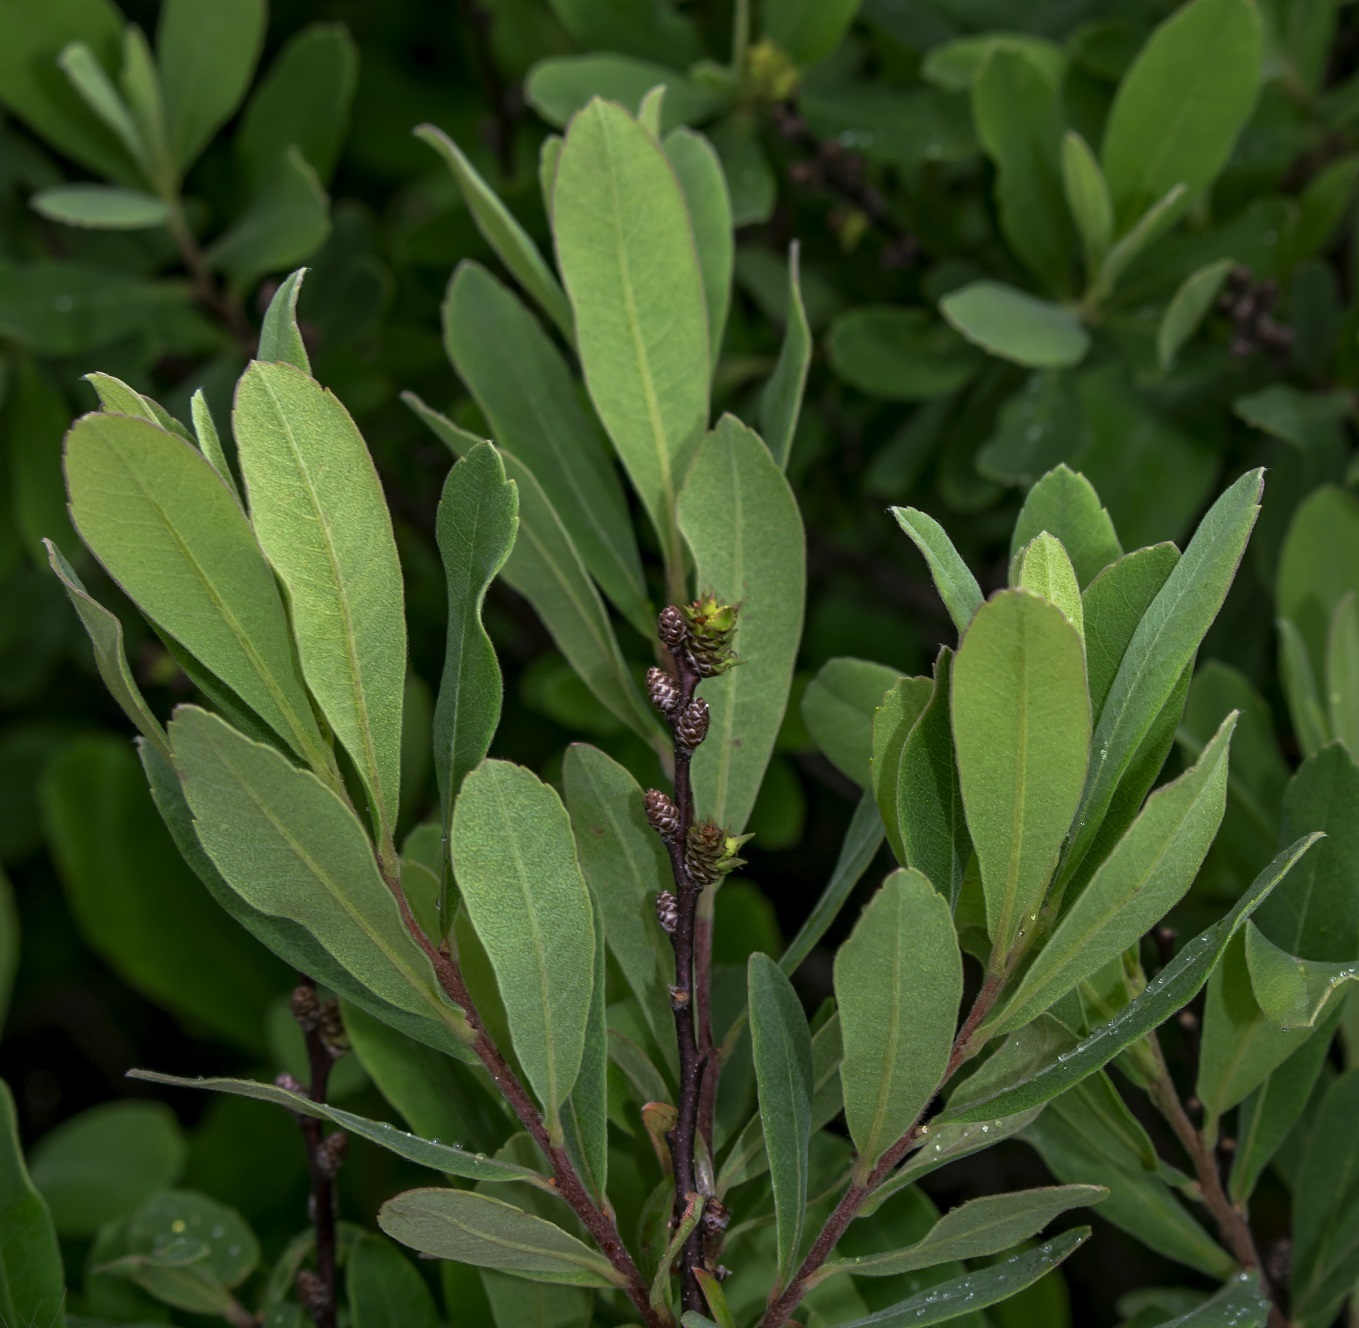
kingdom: Plantae
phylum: Tracheophyta
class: Magnoliopsida
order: Fagales
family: Myricaceae
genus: Myrica
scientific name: Myrica gale
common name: Sweet gale
